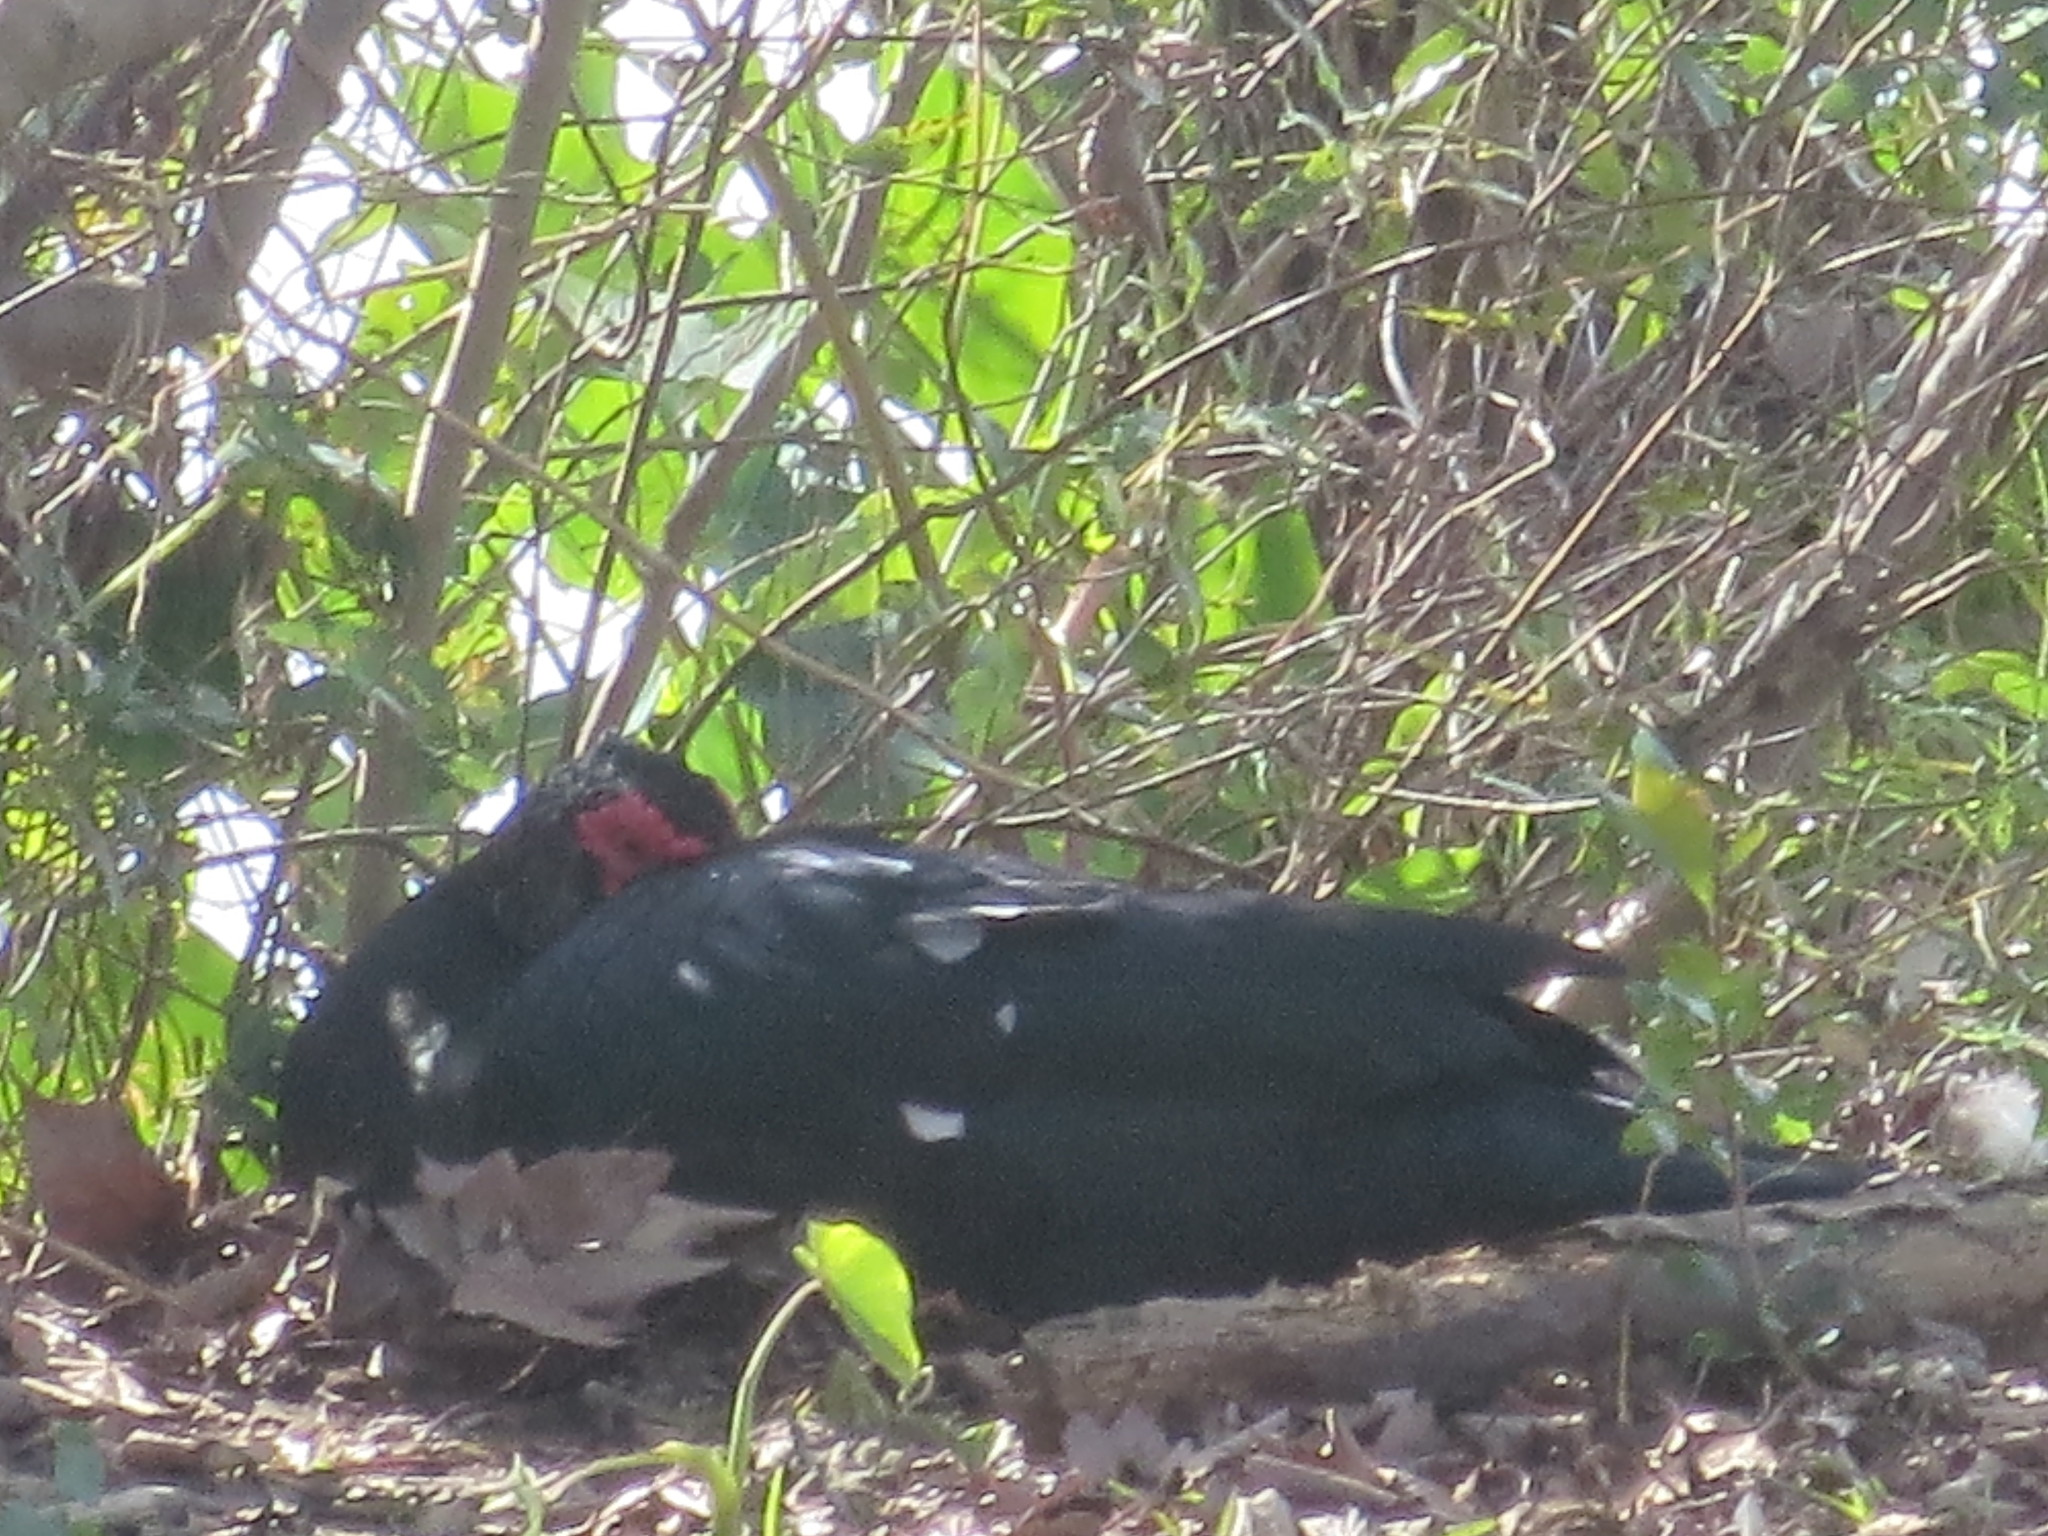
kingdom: Animalia
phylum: Chordata
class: Aves
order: Anseriformes
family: Anatidae
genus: Cairina
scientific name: Cairina moschata
